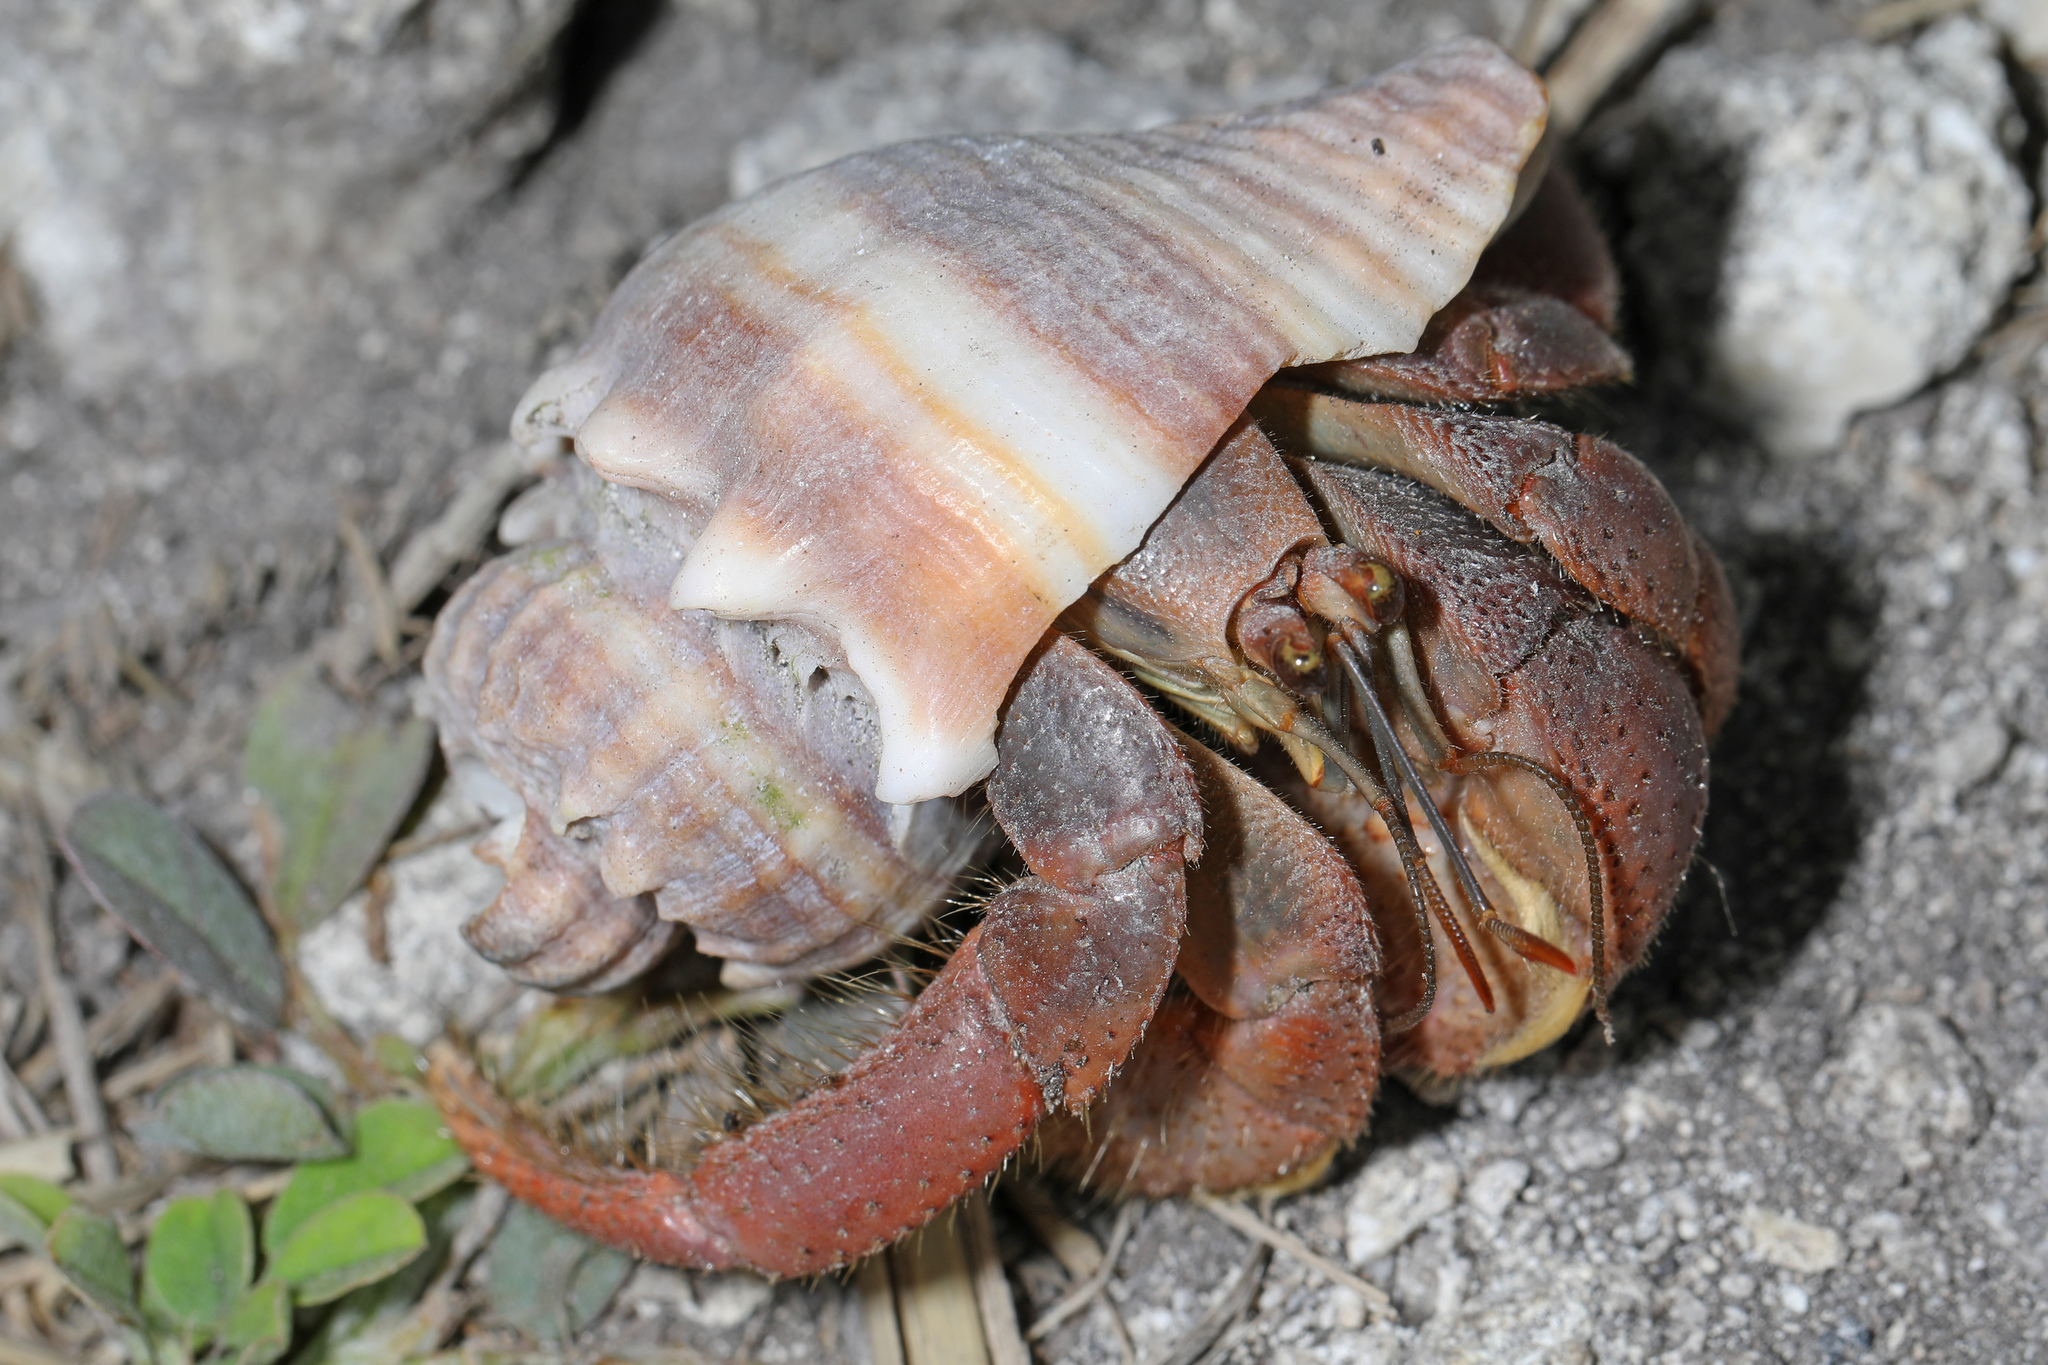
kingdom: Animalia
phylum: Arthropoda
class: Malacostraca
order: Decapoda
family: Coenobitidae
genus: Coenobita
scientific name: Coenobita clypeatus
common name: Caribbean hermit crab
